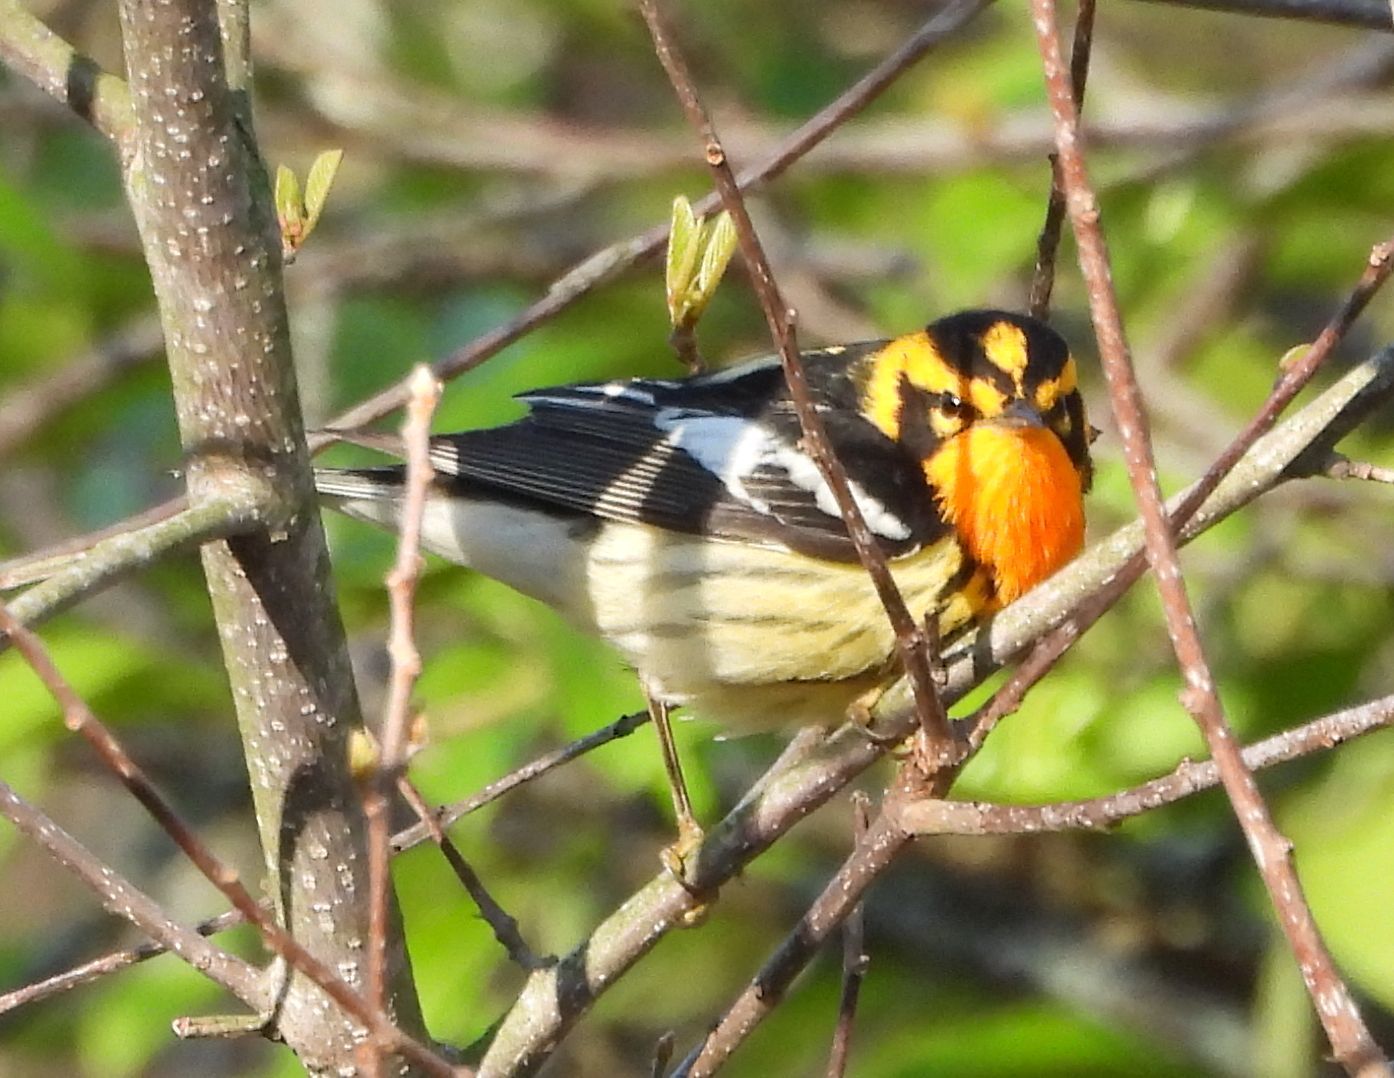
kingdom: Animalia
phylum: Chordata
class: Aves
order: Passeriformes
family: Parulidae
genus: Setophaga
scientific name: Setophaga fusca
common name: Blackburnian warbler
